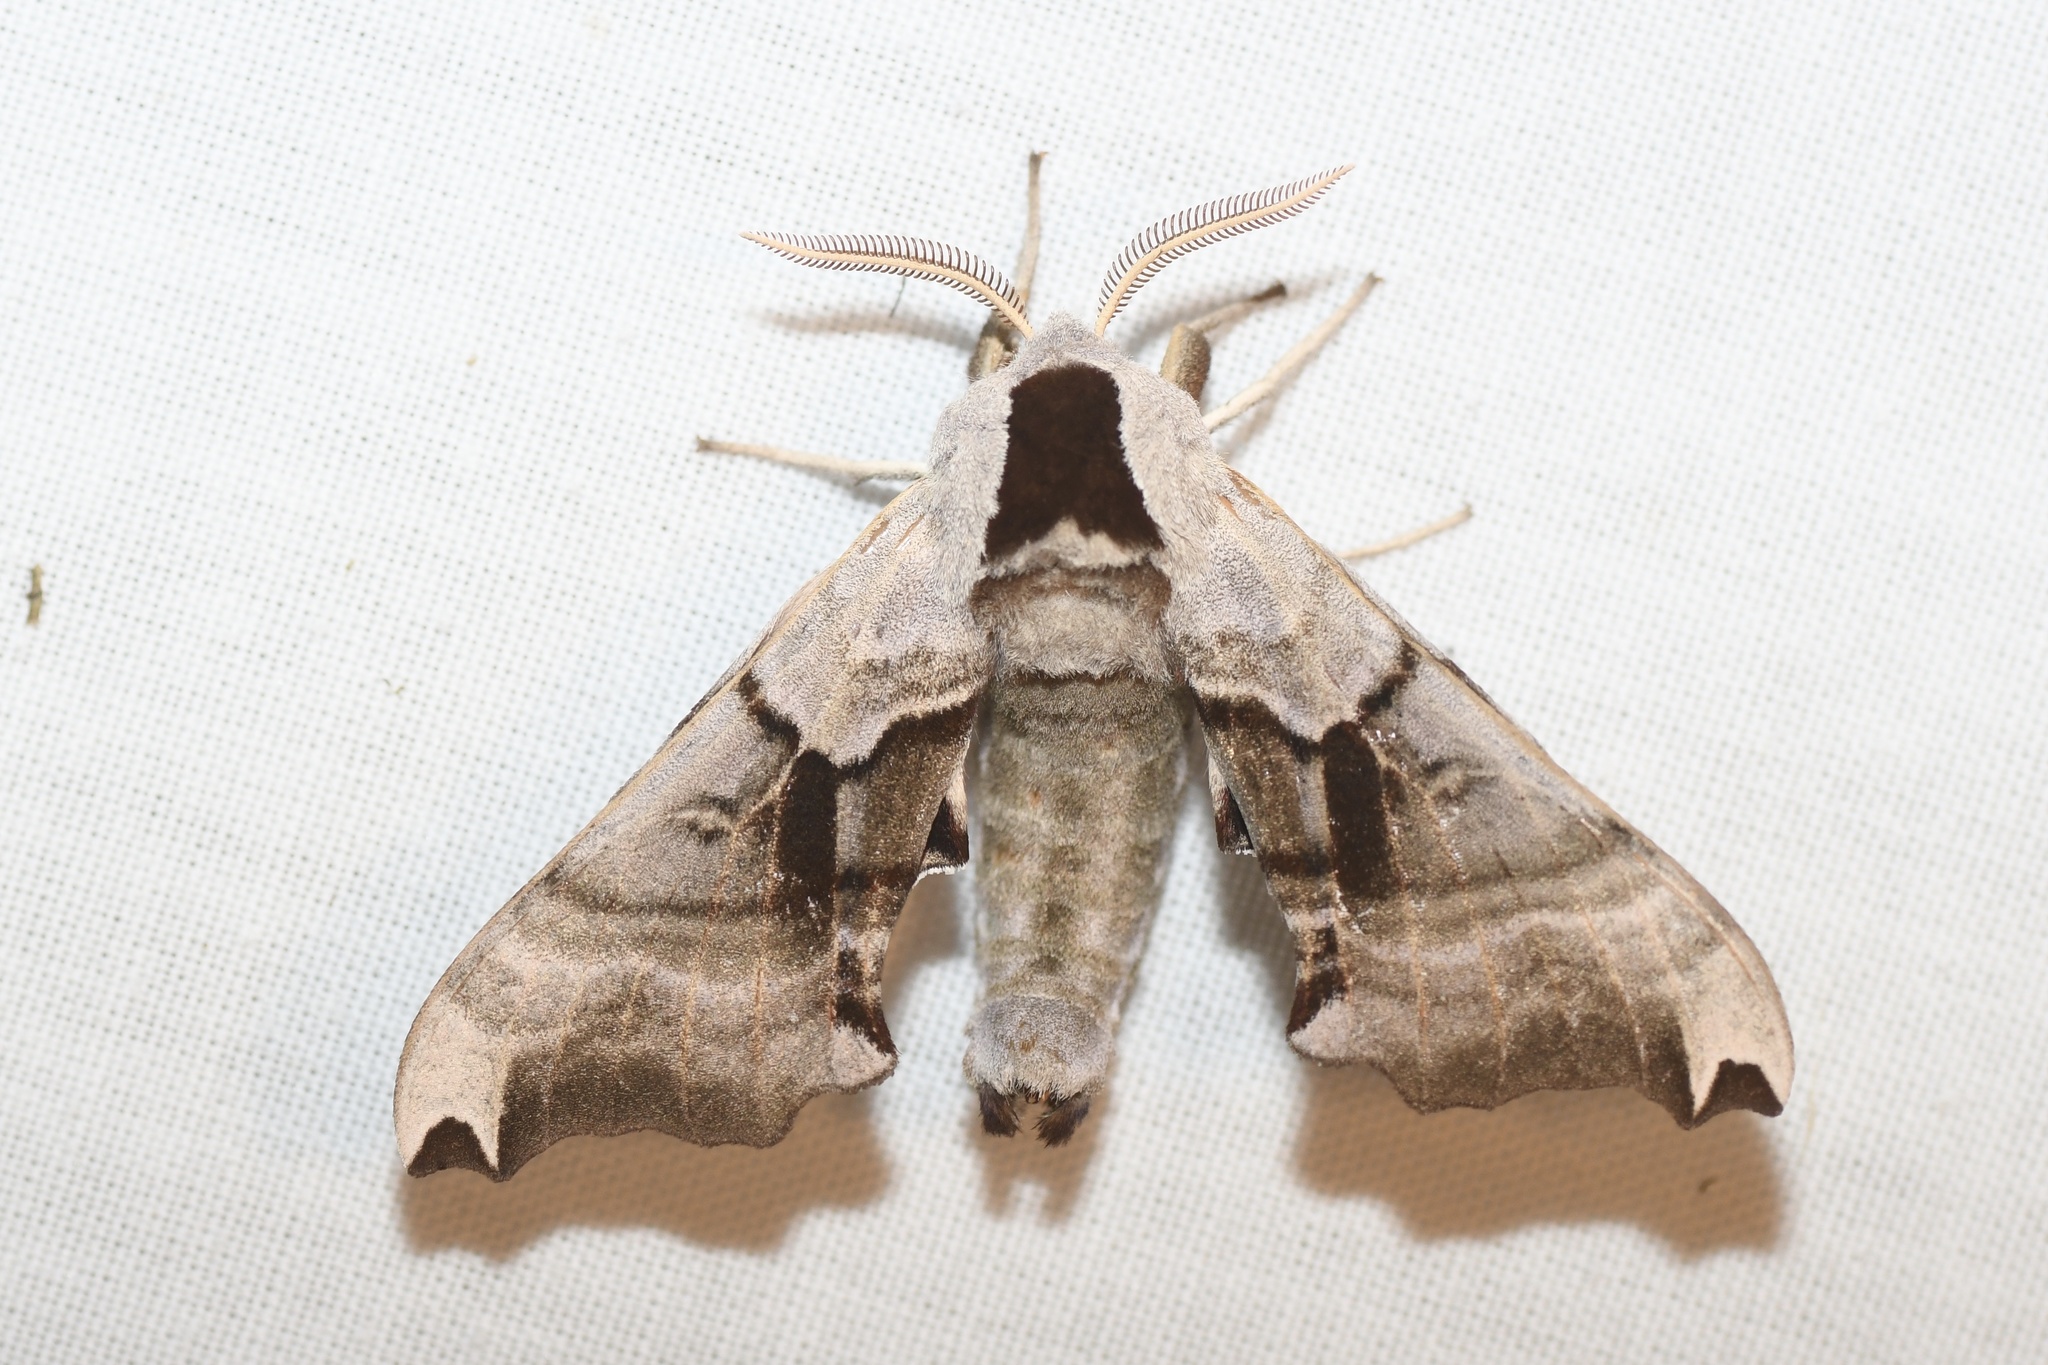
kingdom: Animalia
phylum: Arthropoda
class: Insecta
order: Lepidoptera
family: Sphingidae
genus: Smerinthus
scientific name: Smerinthus jamaicensis
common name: Twin spotted sphinx
